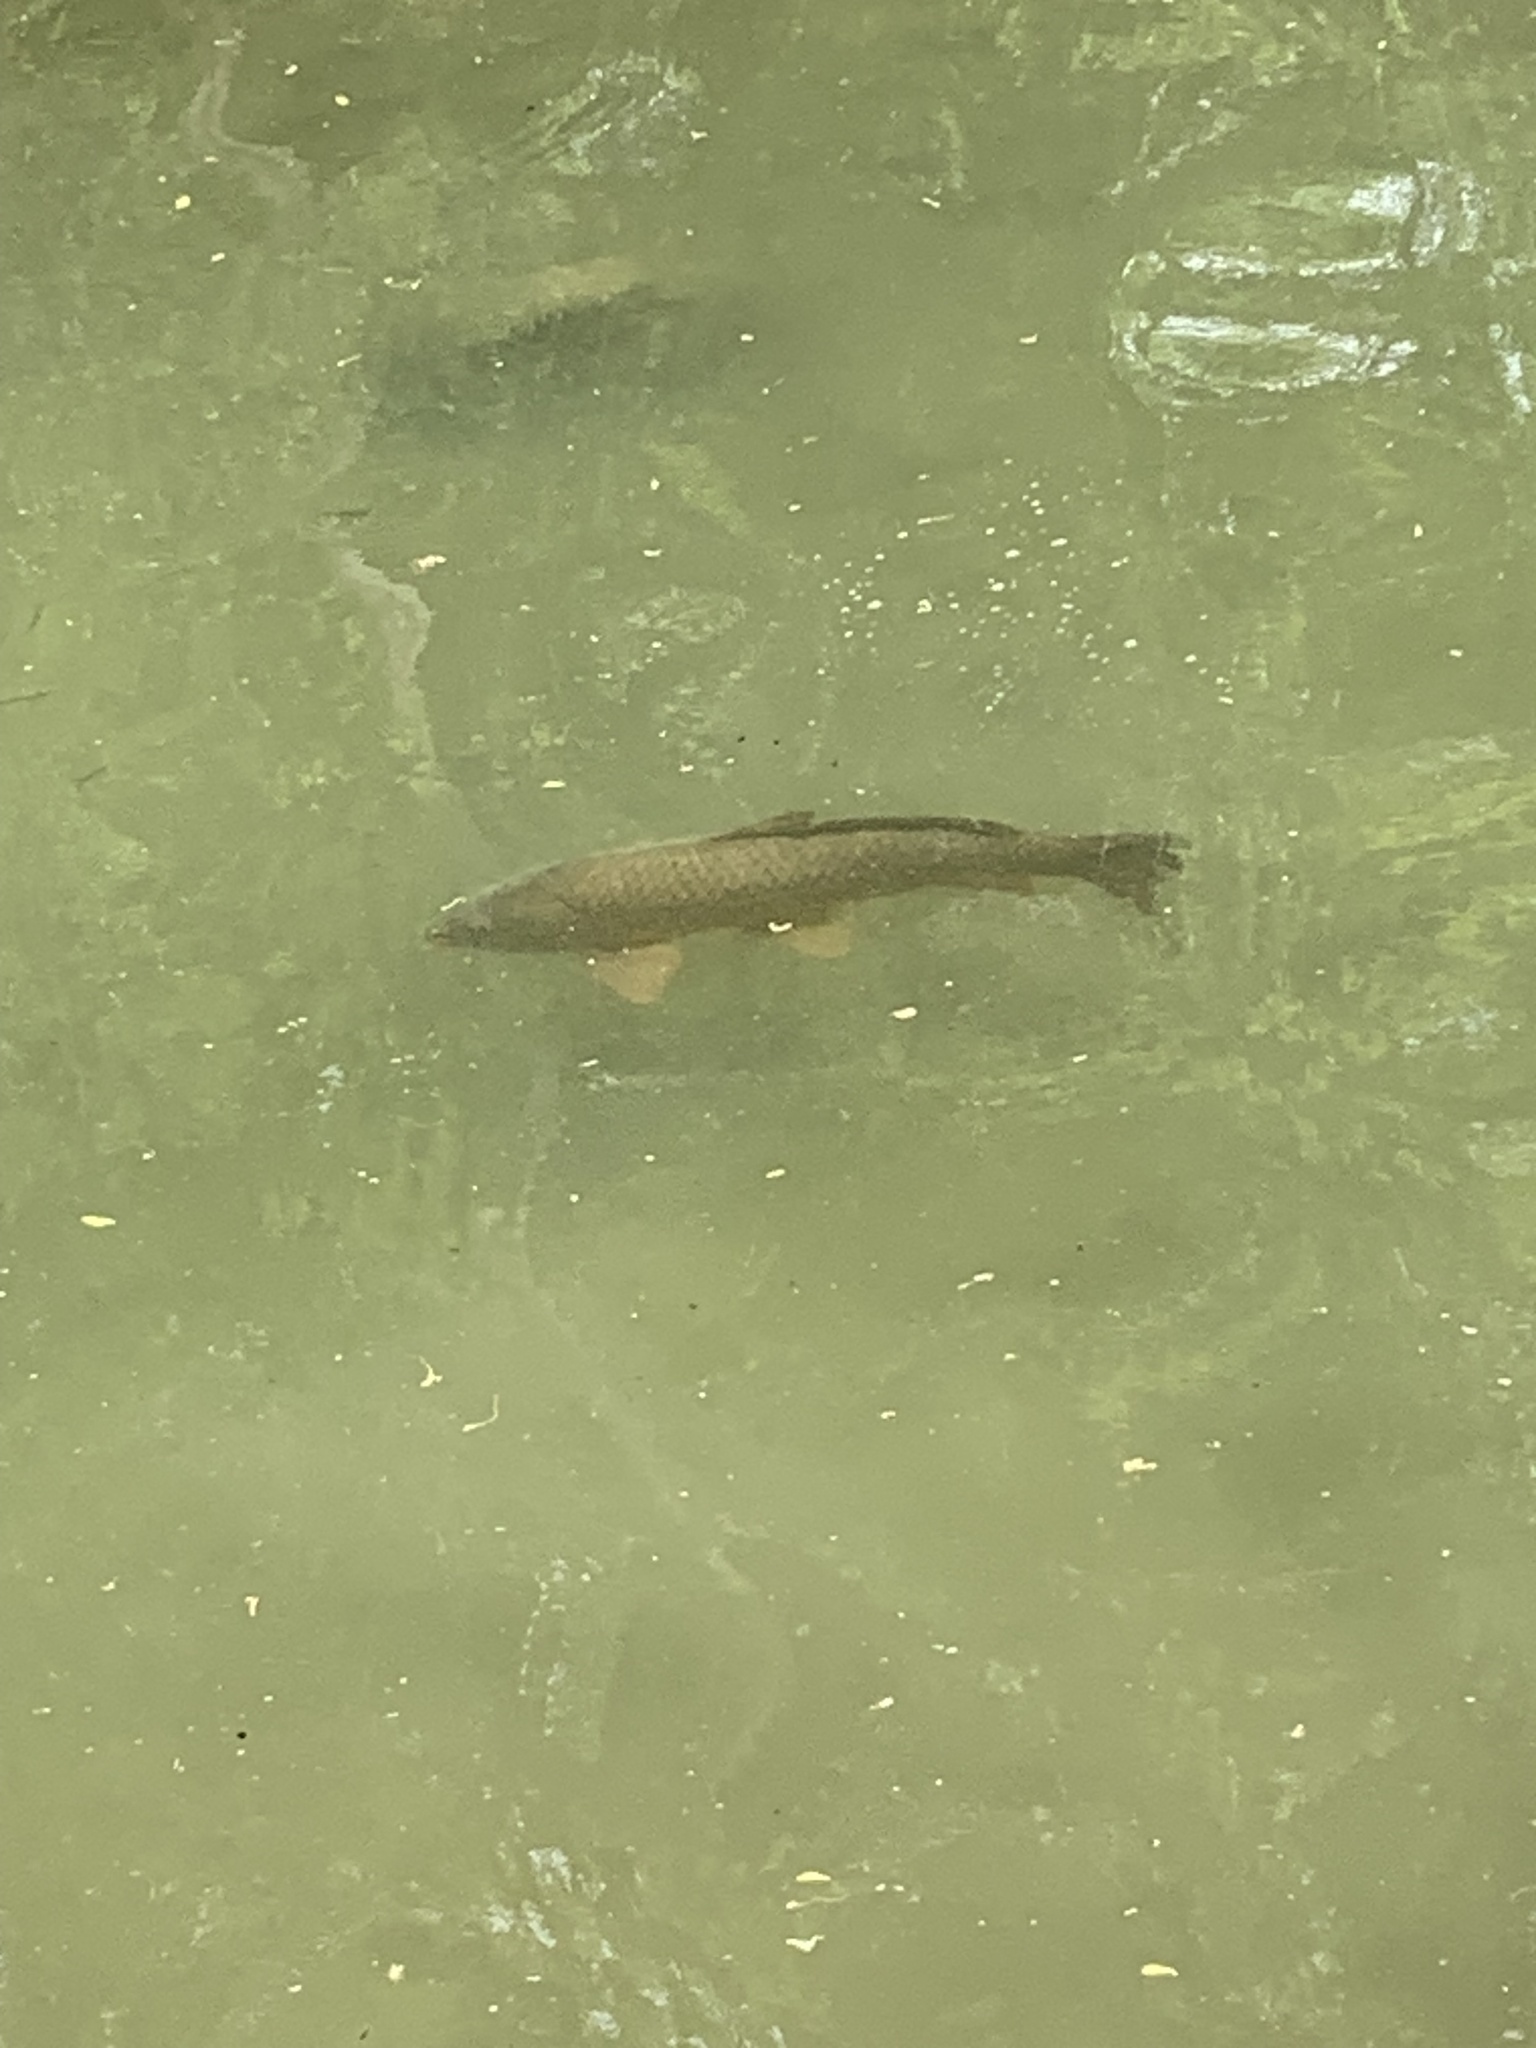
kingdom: Animalia
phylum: Chordata
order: Cypriniformes
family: Cyprinidae
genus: Cyprinus
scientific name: Cyprinus carpio
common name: Common carp
